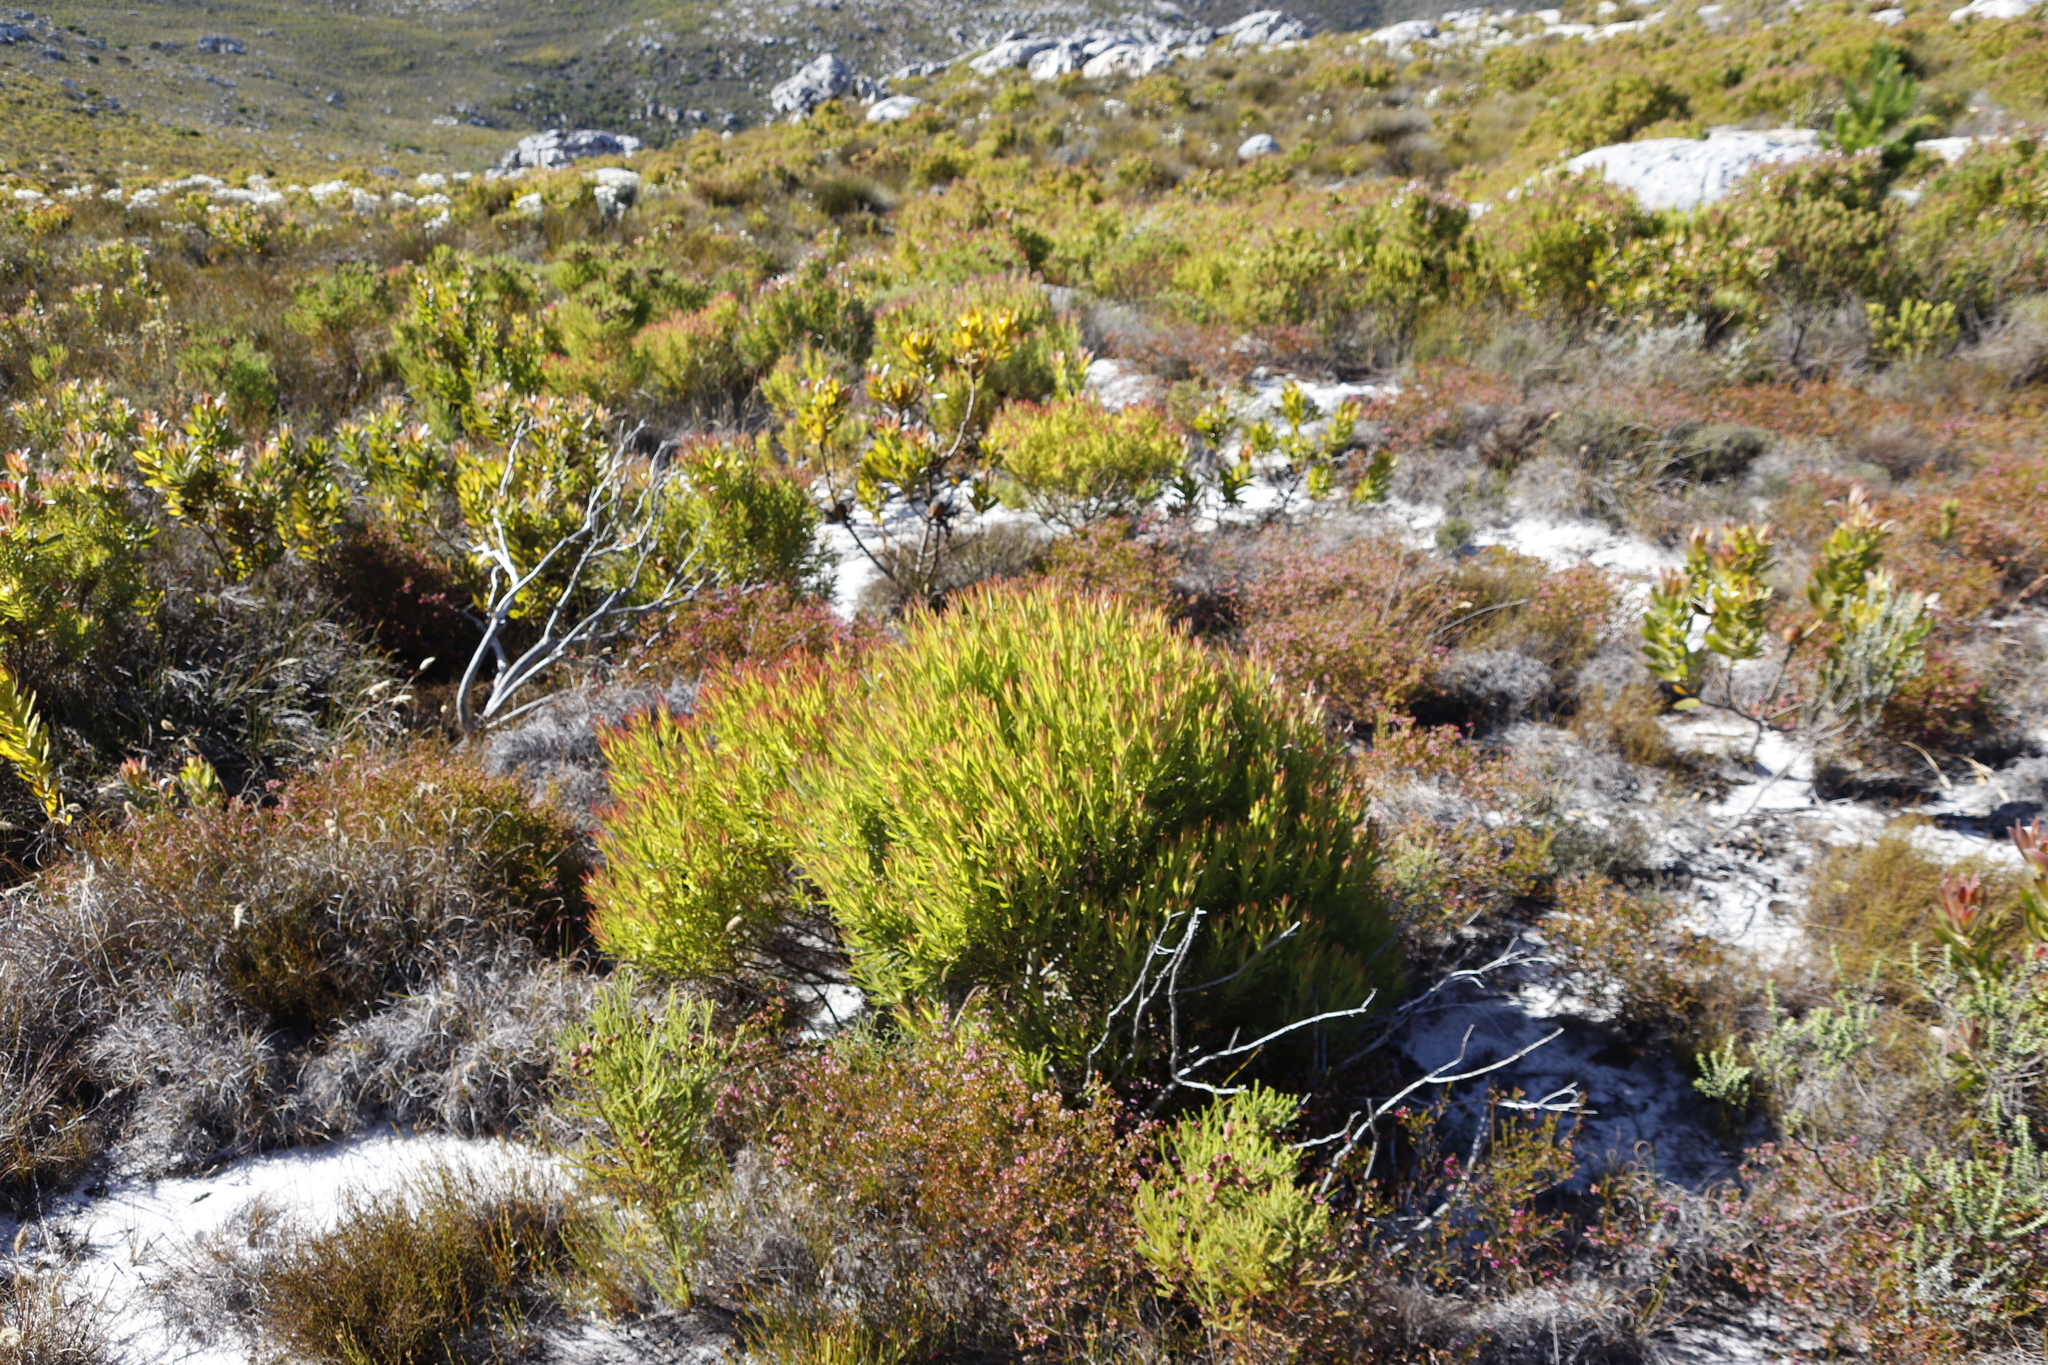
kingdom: Plantae
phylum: Tracheophyta
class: Magnoliopsida
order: Proteales
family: Proteaceae
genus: Leucadendron
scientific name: Leucadendron xanthoconus
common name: Sickle-leaf conebush
